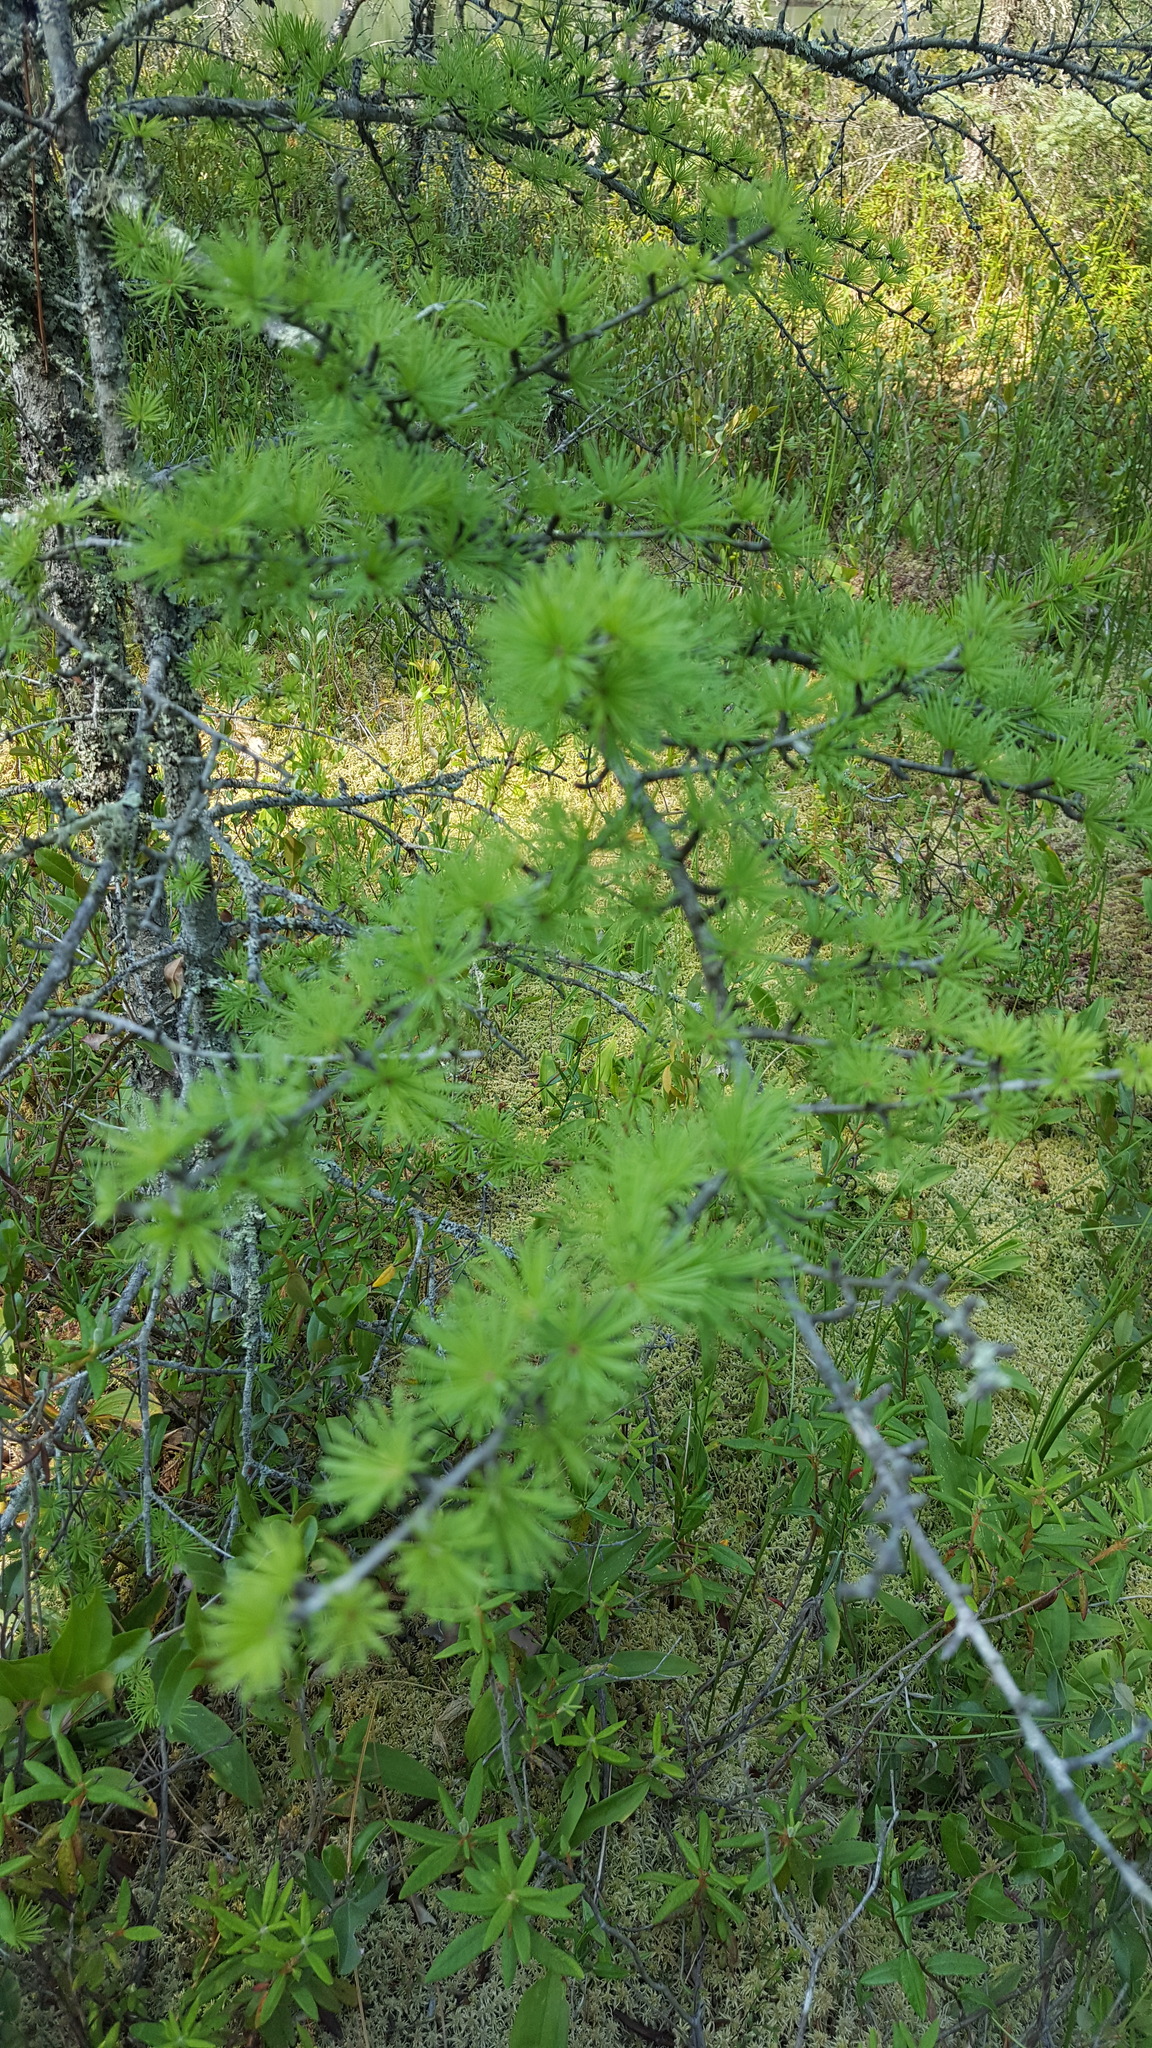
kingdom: Plantae
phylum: Tracheophyta
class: Pinopsida
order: Pinales
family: Pinaceae
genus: Larix
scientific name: Larix laricina
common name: American larch
